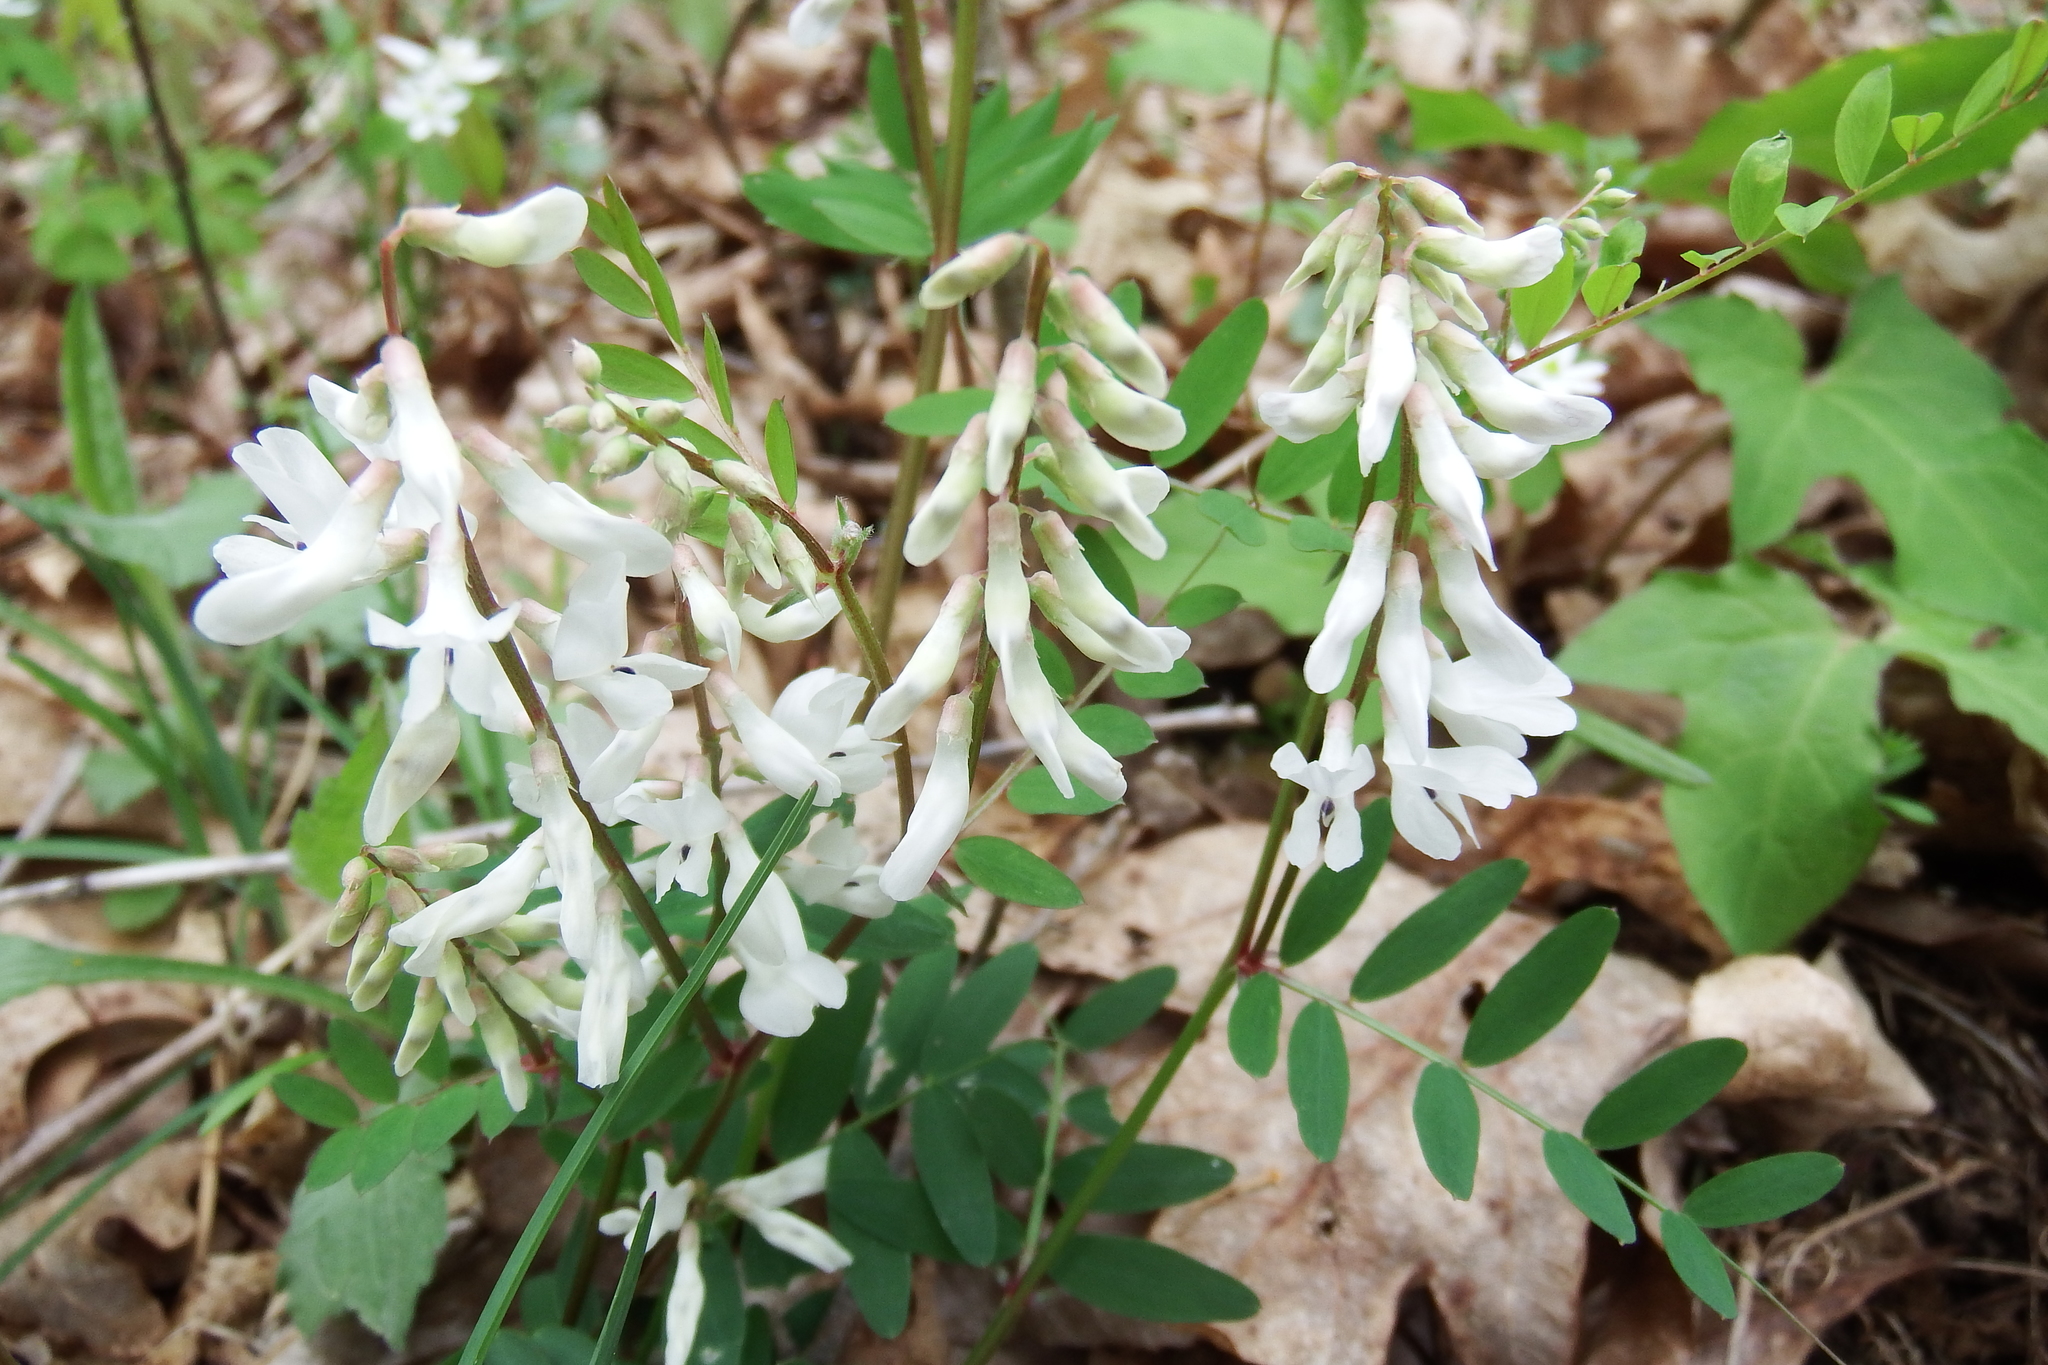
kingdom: Plantae
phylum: Tracheophyta
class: Magnoliopsida
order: Fabales
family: Fabaceae
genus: Vicia
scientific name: Vicia caroliniana
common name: Carolina vetch
